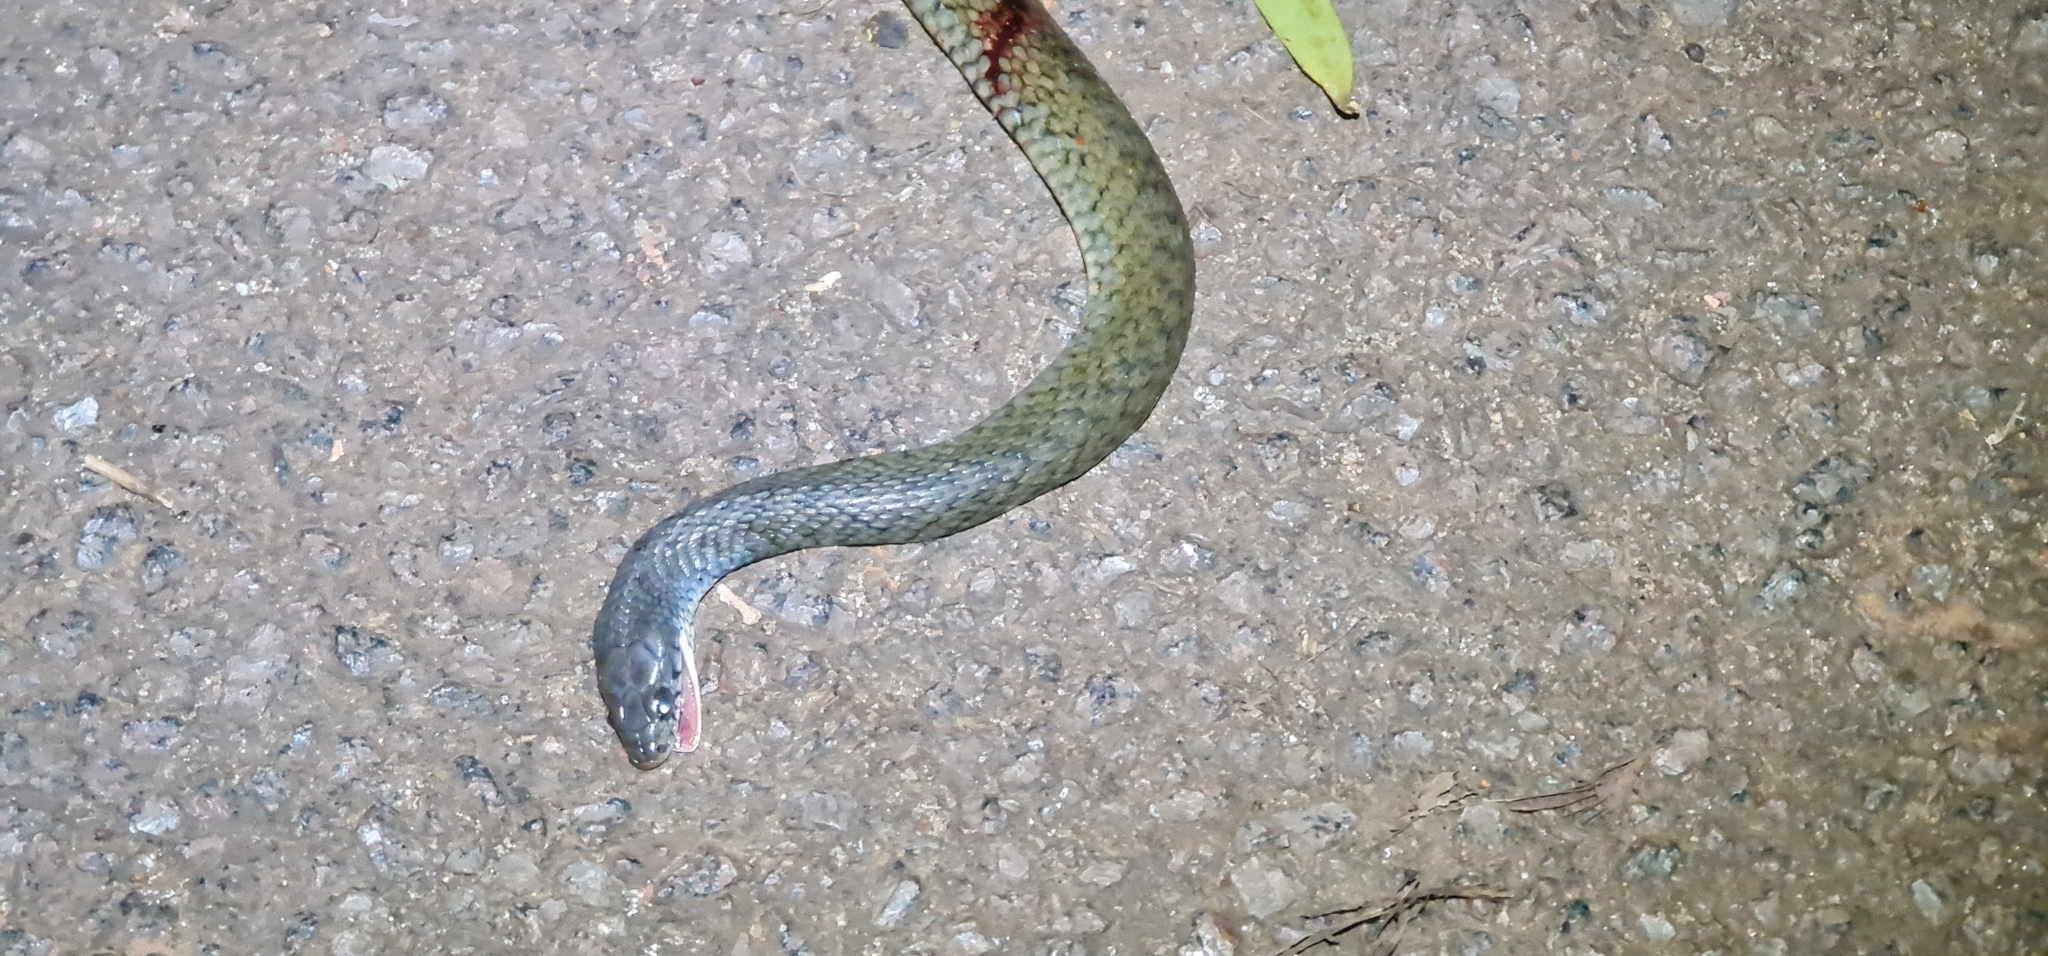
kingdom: Animalia
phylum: Chordata
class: Squamata
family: Colubridae
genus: Tropidonophis
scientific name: Tropidonophis mairii
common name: Common keelback
